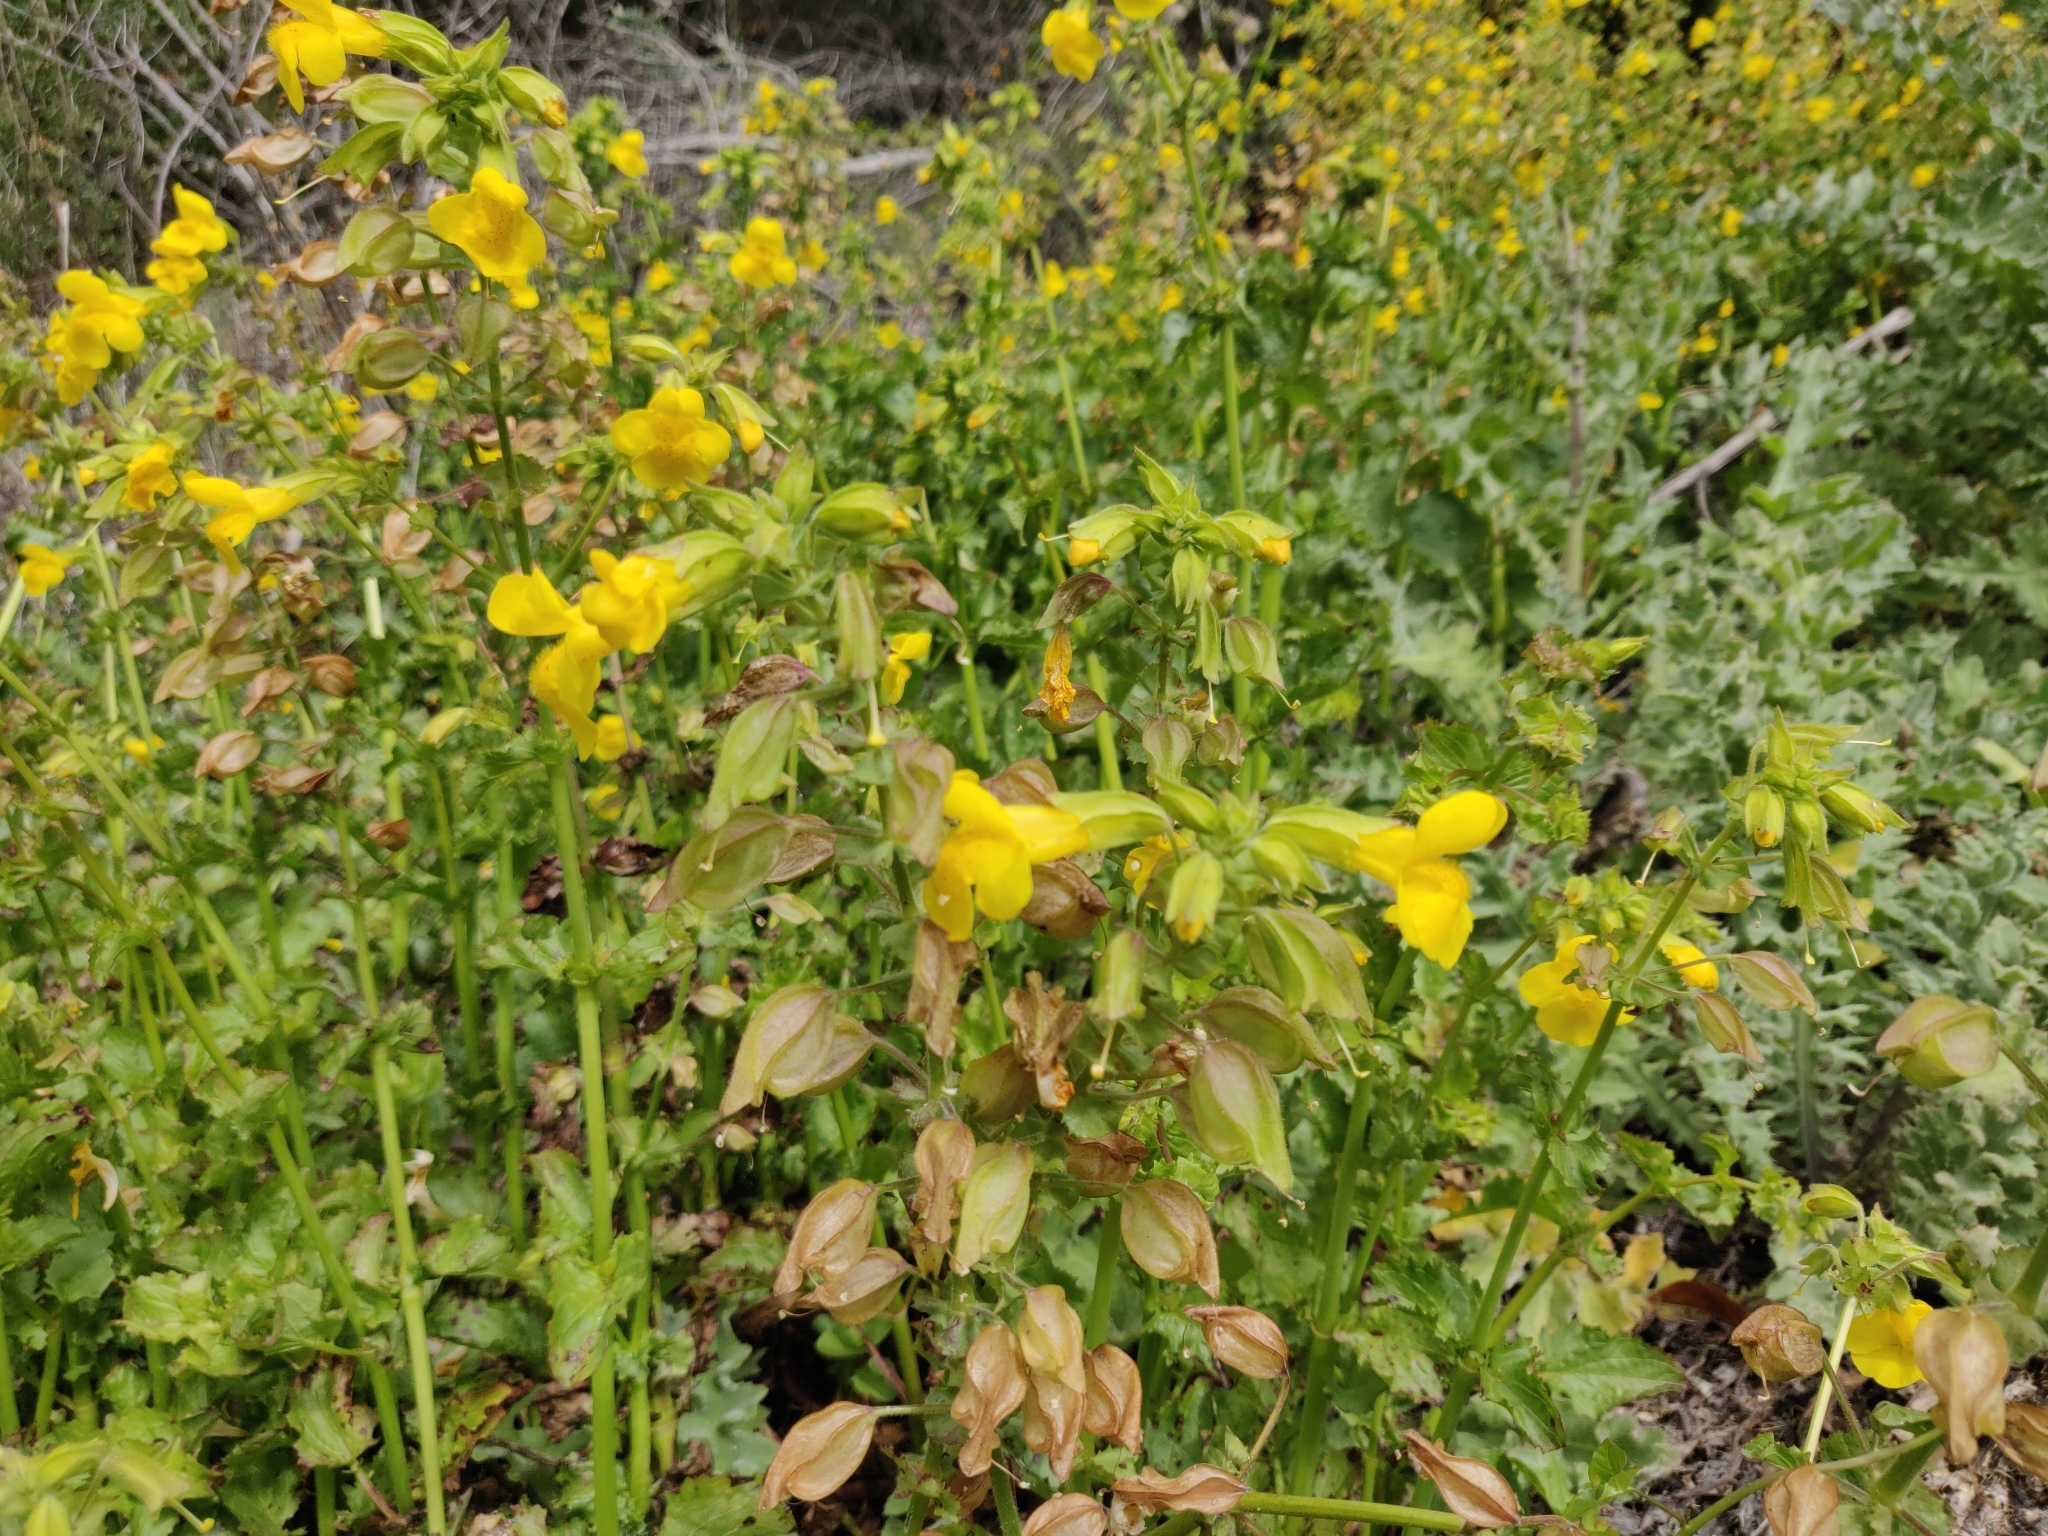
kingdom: Plantae
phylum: Tracheophyta
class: Magnoliopsida
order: Lamiales
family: Phrymaceae
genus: Erythranthe
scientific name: Erythranthe guttata
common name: Monkeyflower
